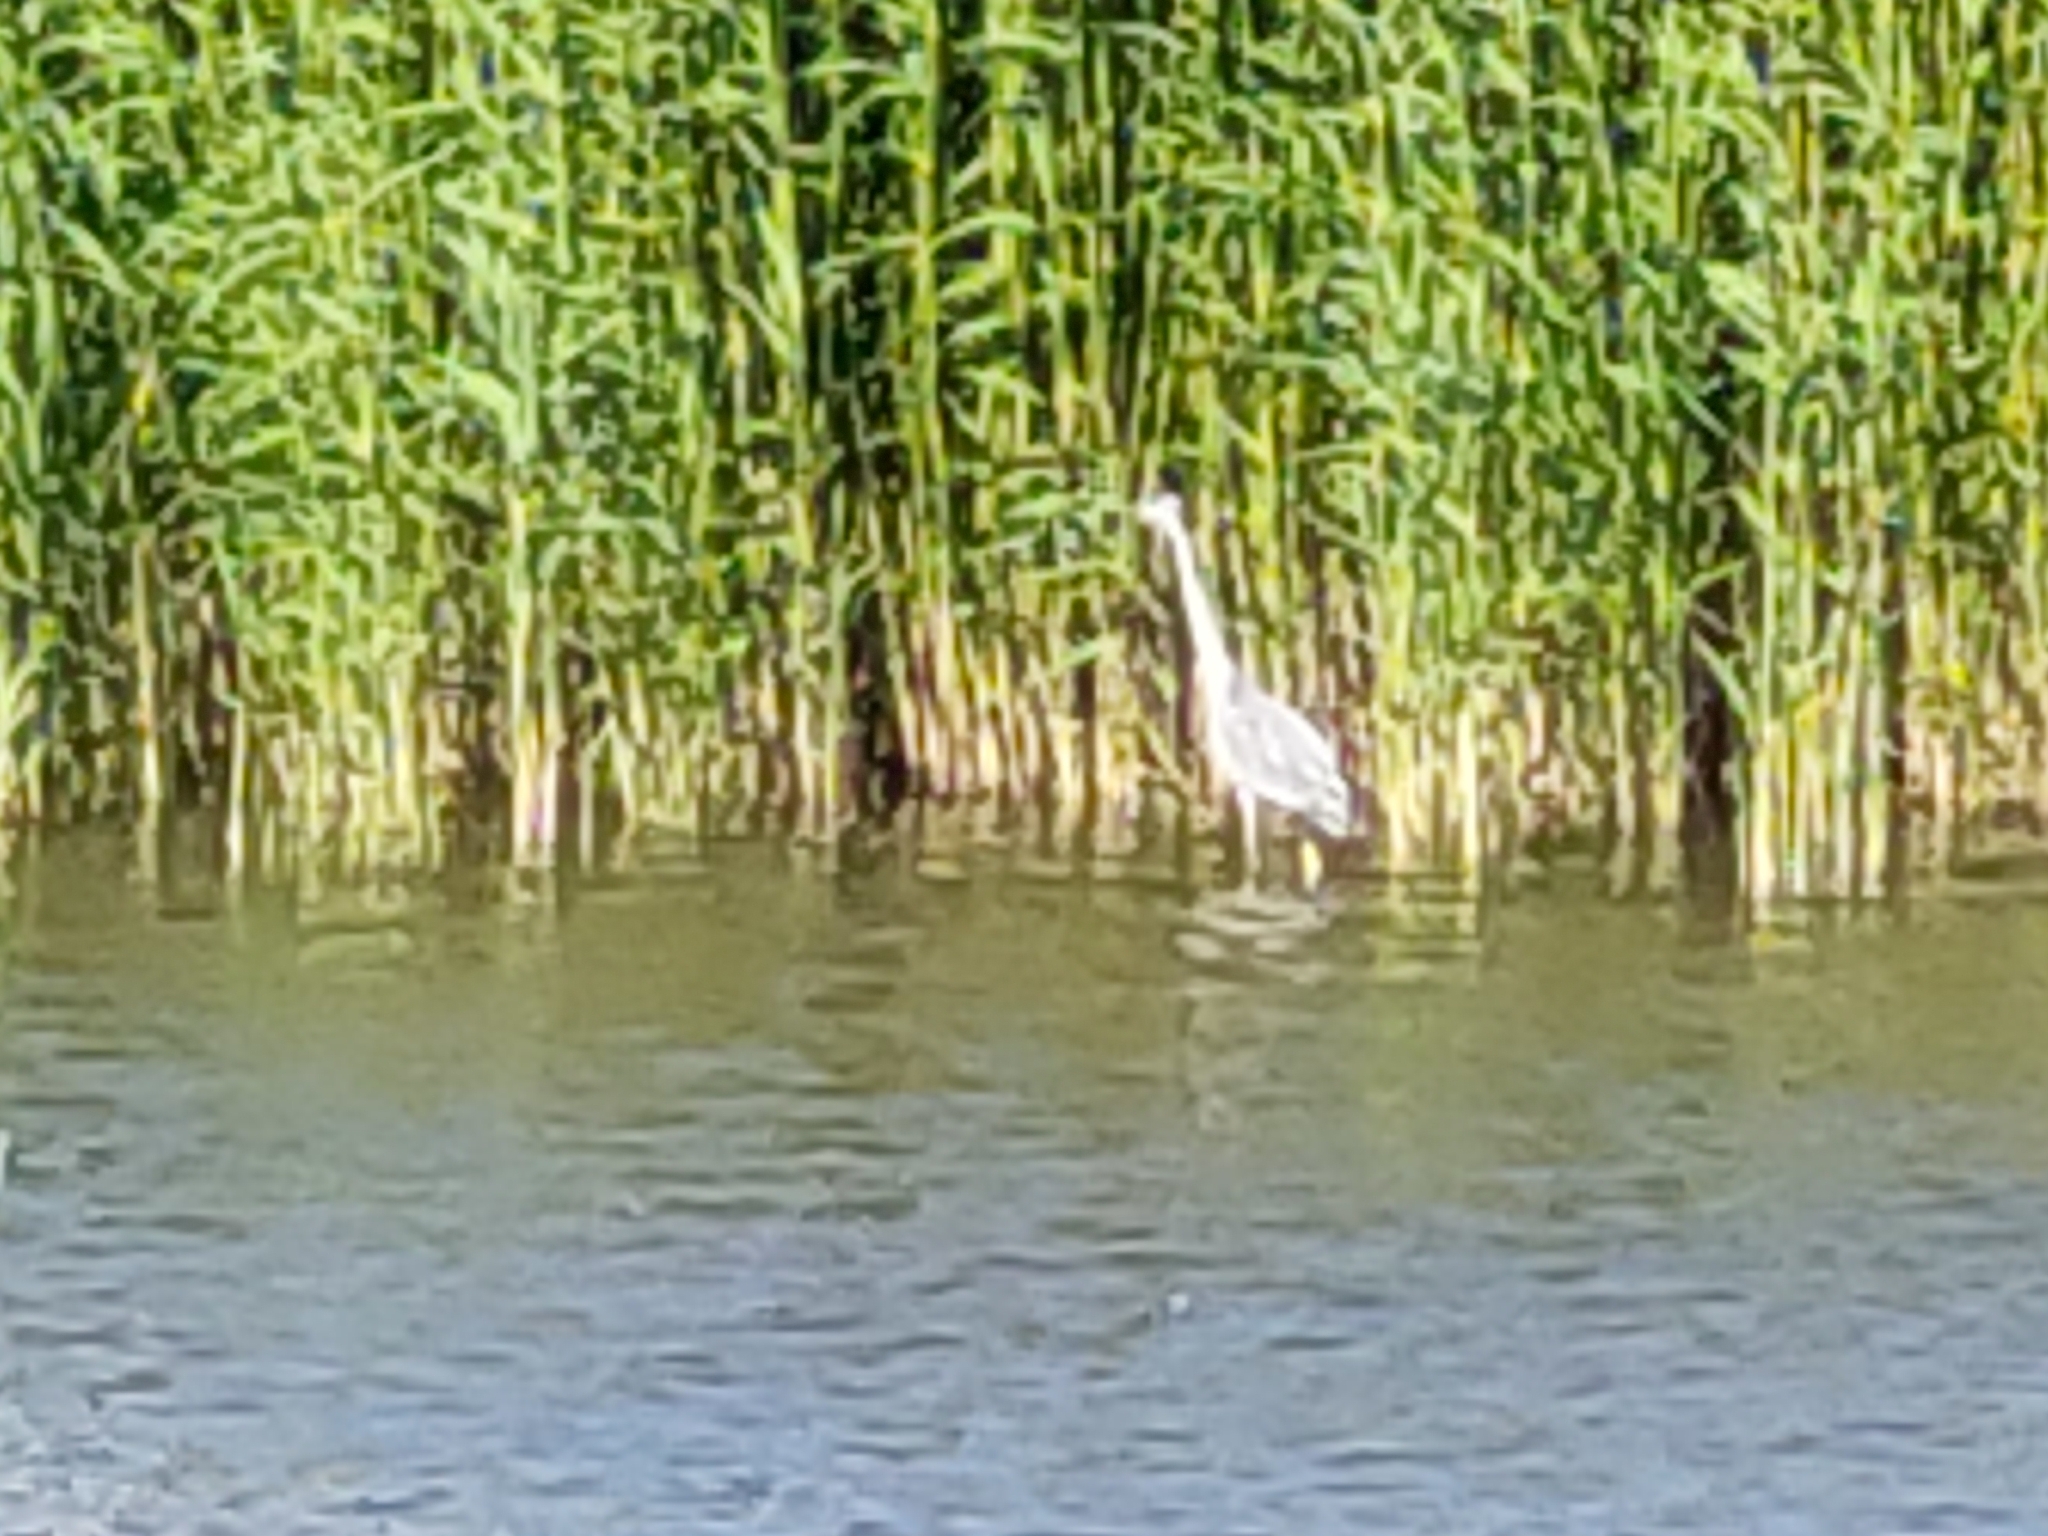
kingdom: Animalia
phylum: Chordata
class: Aves
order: Pelecaniformes
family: Ardeidae
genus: Ardea
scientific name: Ardea cinerea
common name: Grey heron
